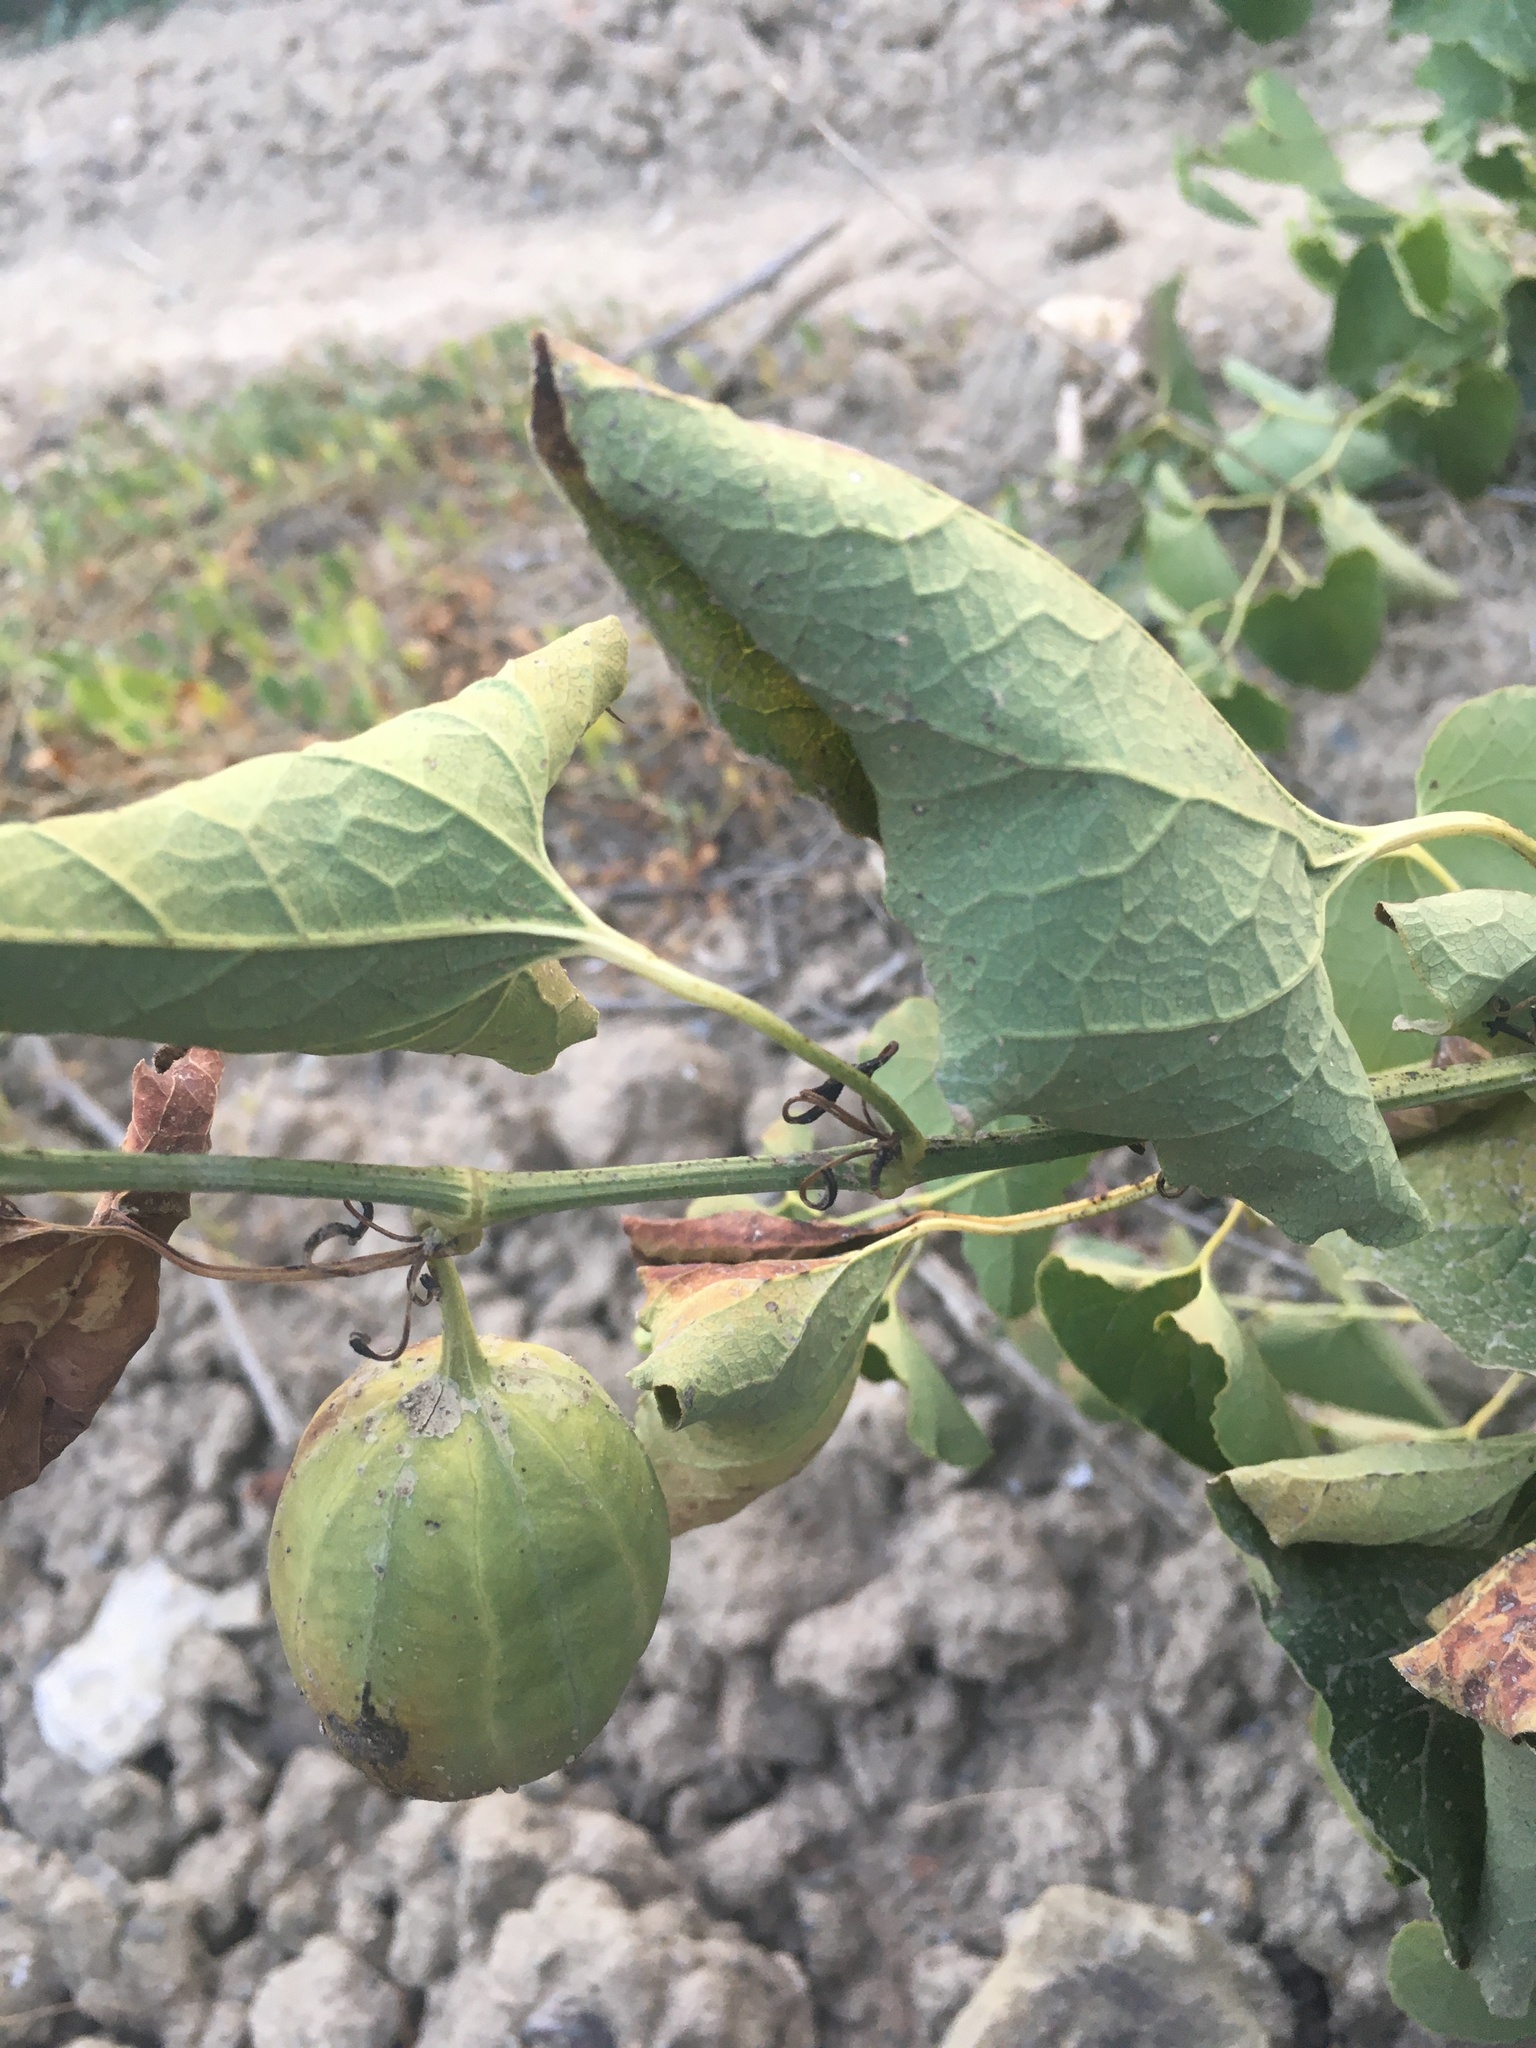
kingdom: Plantae
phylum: Tracheophyta
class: Magnoliopsida
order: Piperales
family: Aristolochiaceae
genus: Aristolochia
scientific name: Aristolochia clematitis
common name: Birthwort
